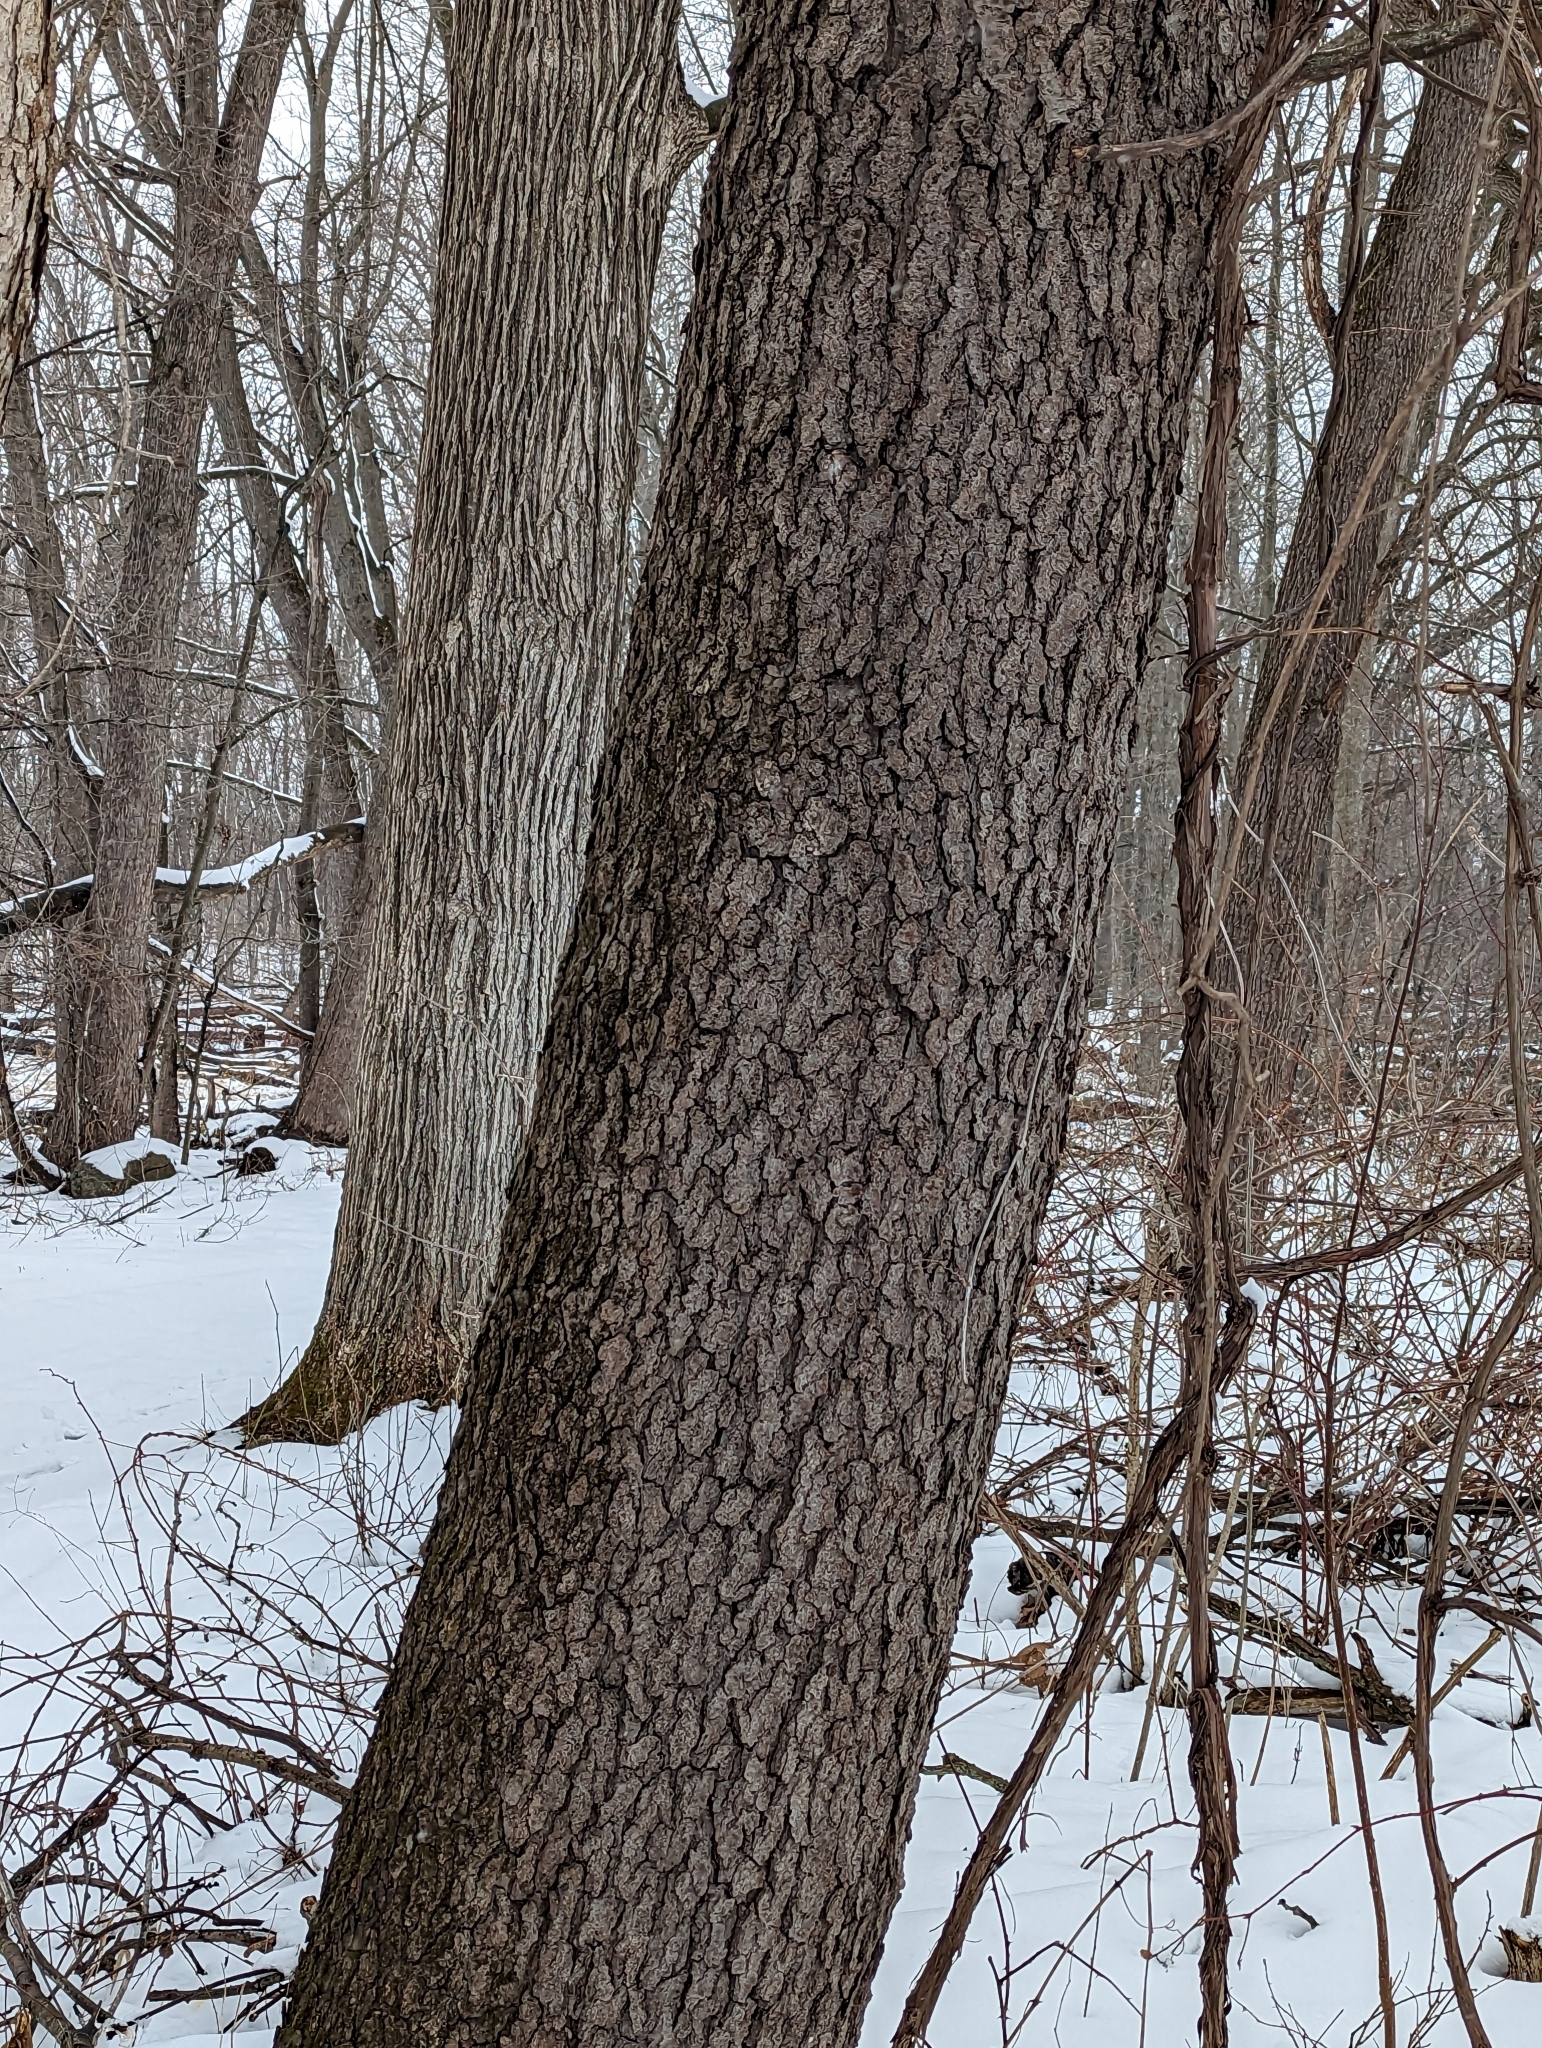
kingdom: Plantae
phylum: Tracheophyta
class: Magnoliopsida
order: Rosales
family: Rosaceae
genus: Prunus
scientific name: Prunus serotina
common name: Black cherry
